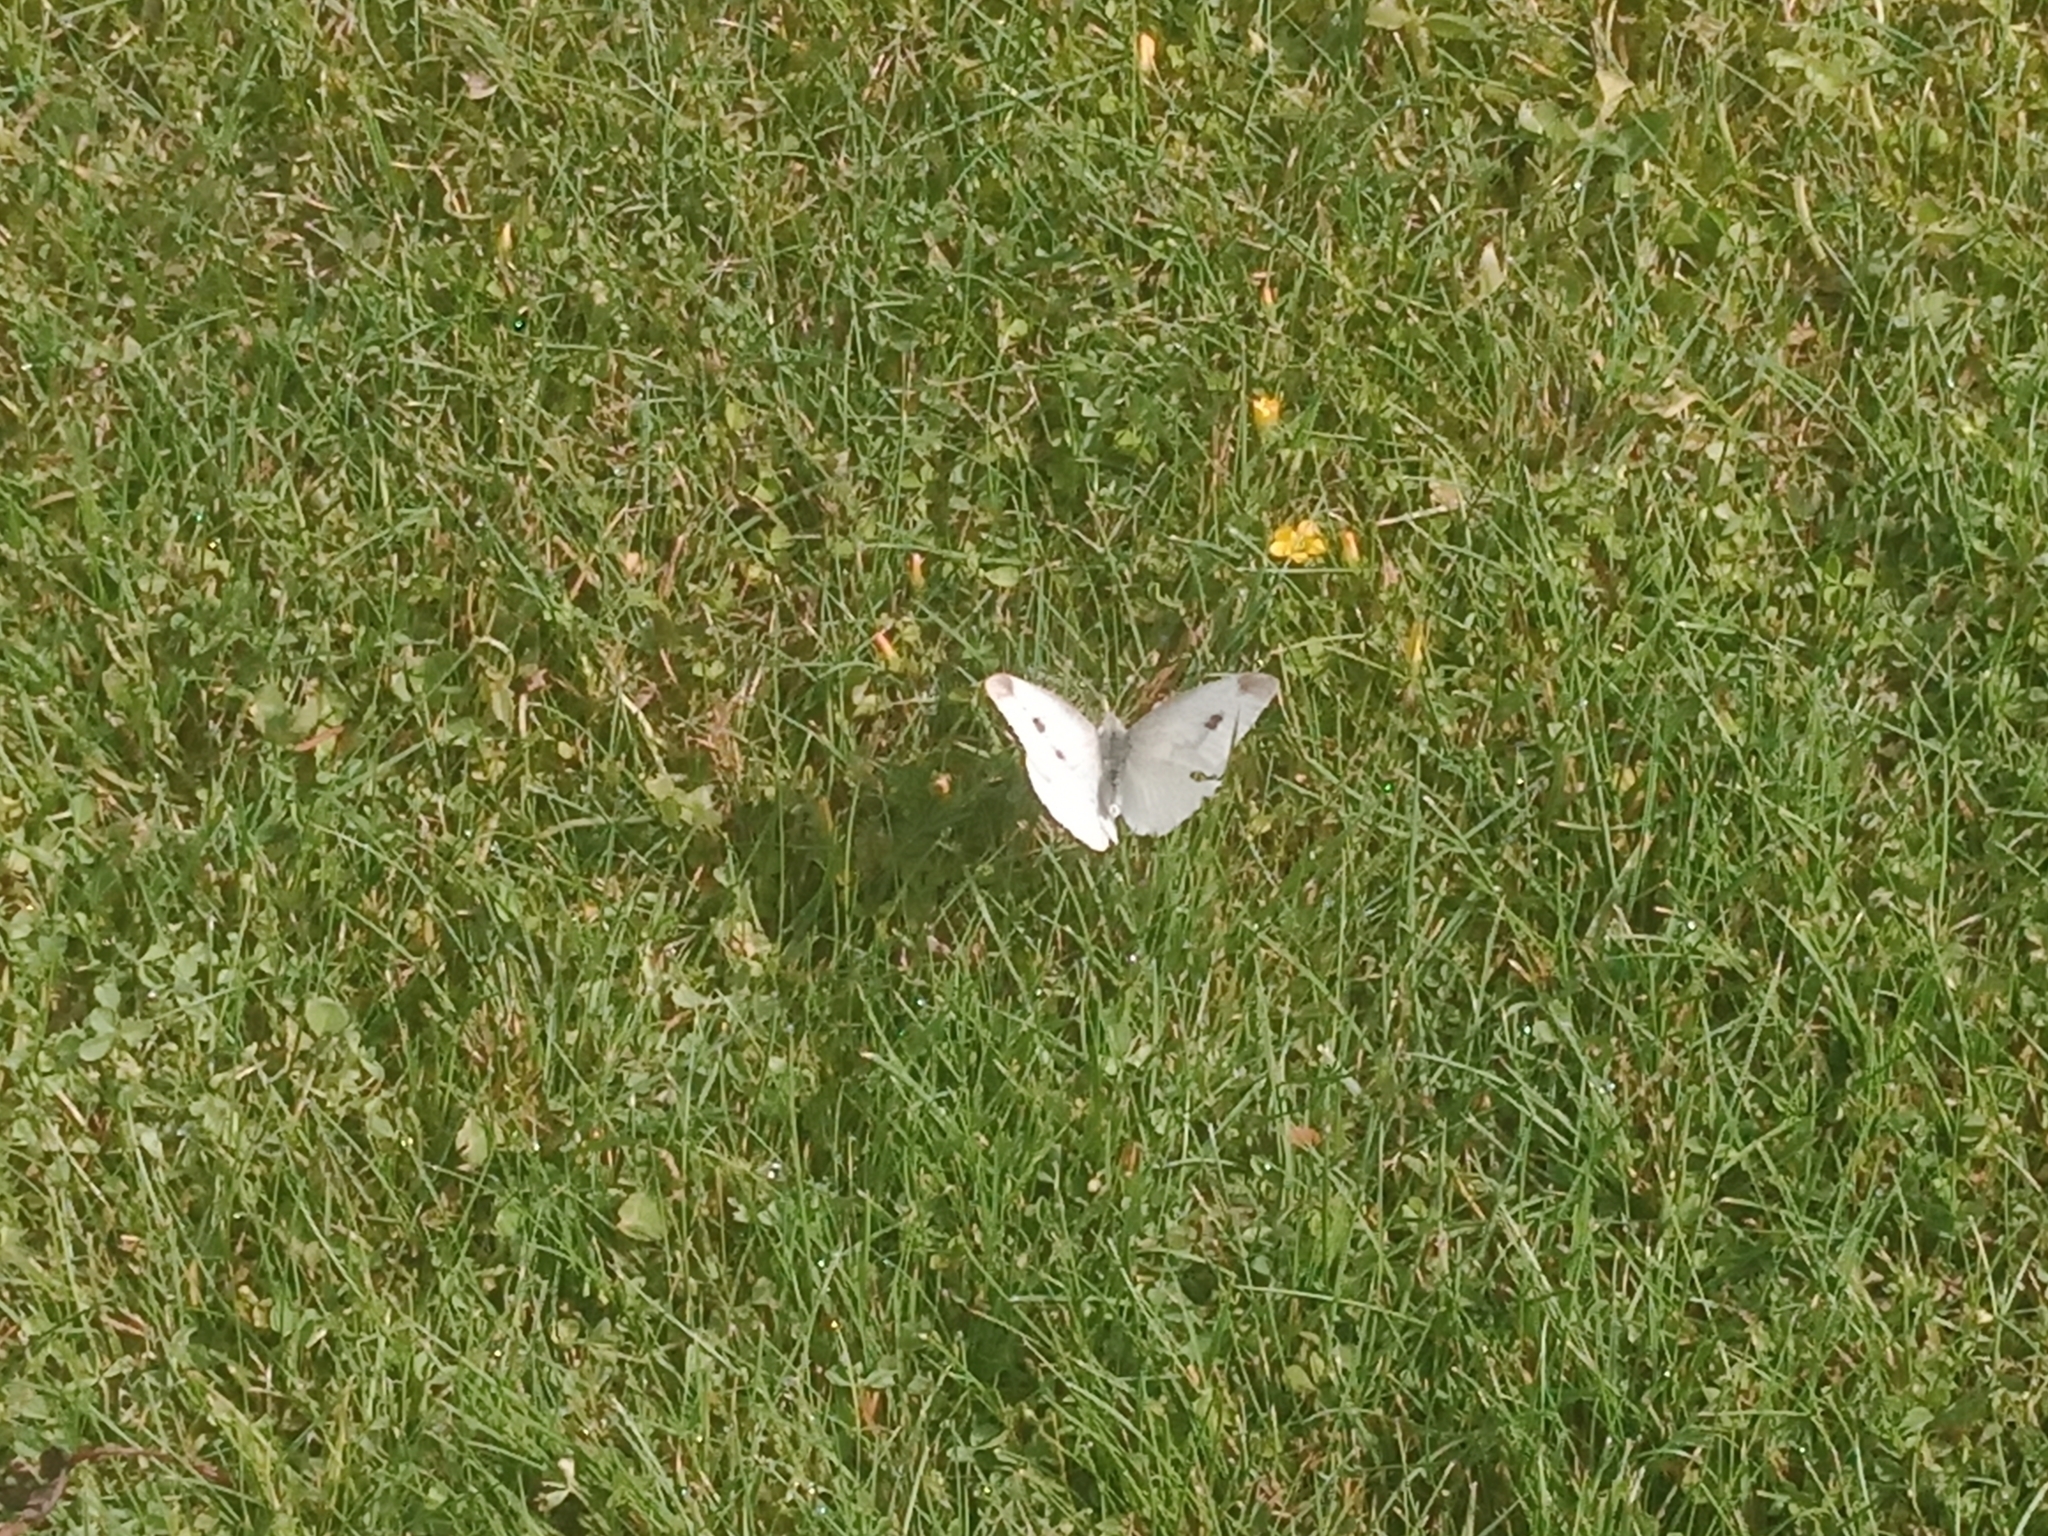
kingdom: Animalia
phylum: Arthropoda
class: Insecta
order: Lepidoptera
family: Pieridae
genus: Pieris
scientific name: Pieris rapae
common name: Small white
